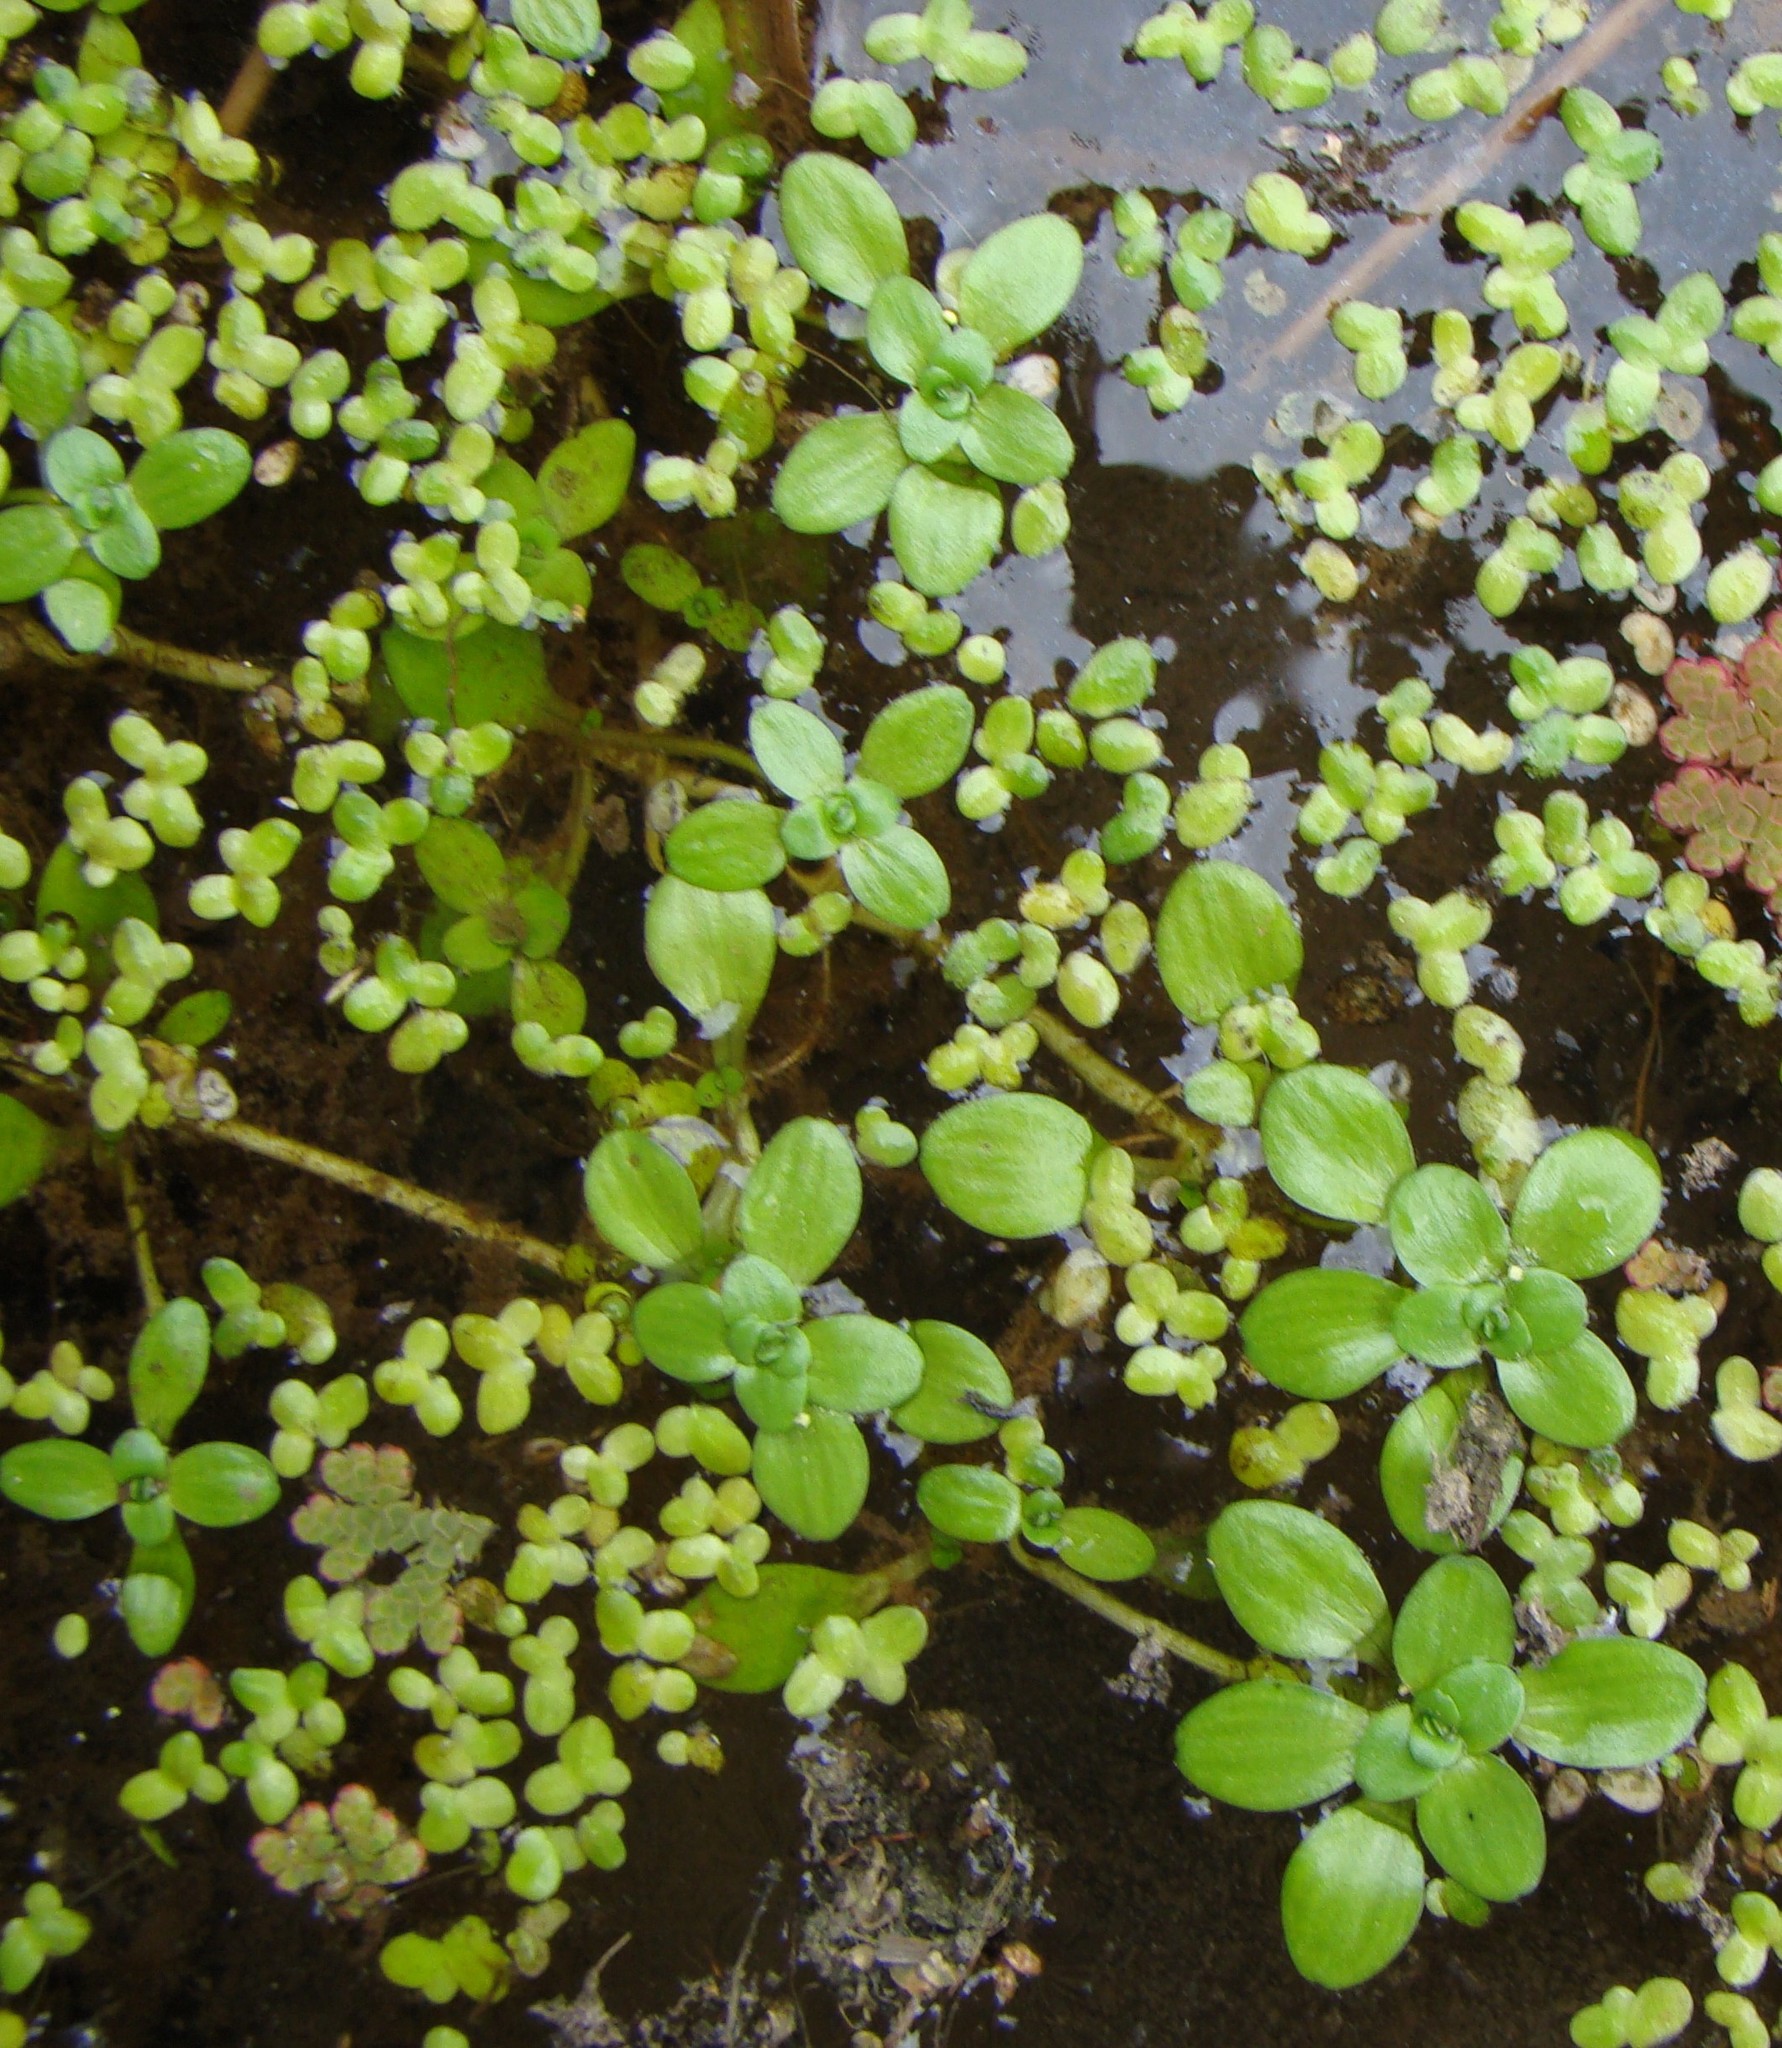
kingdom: Plantae
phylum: Tracheophyta
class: Magnoliopsida
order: Lamiales
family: Plantaginaceae
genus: Callitriche
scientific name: Callitriche stagnalis
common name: Common water-starwort
